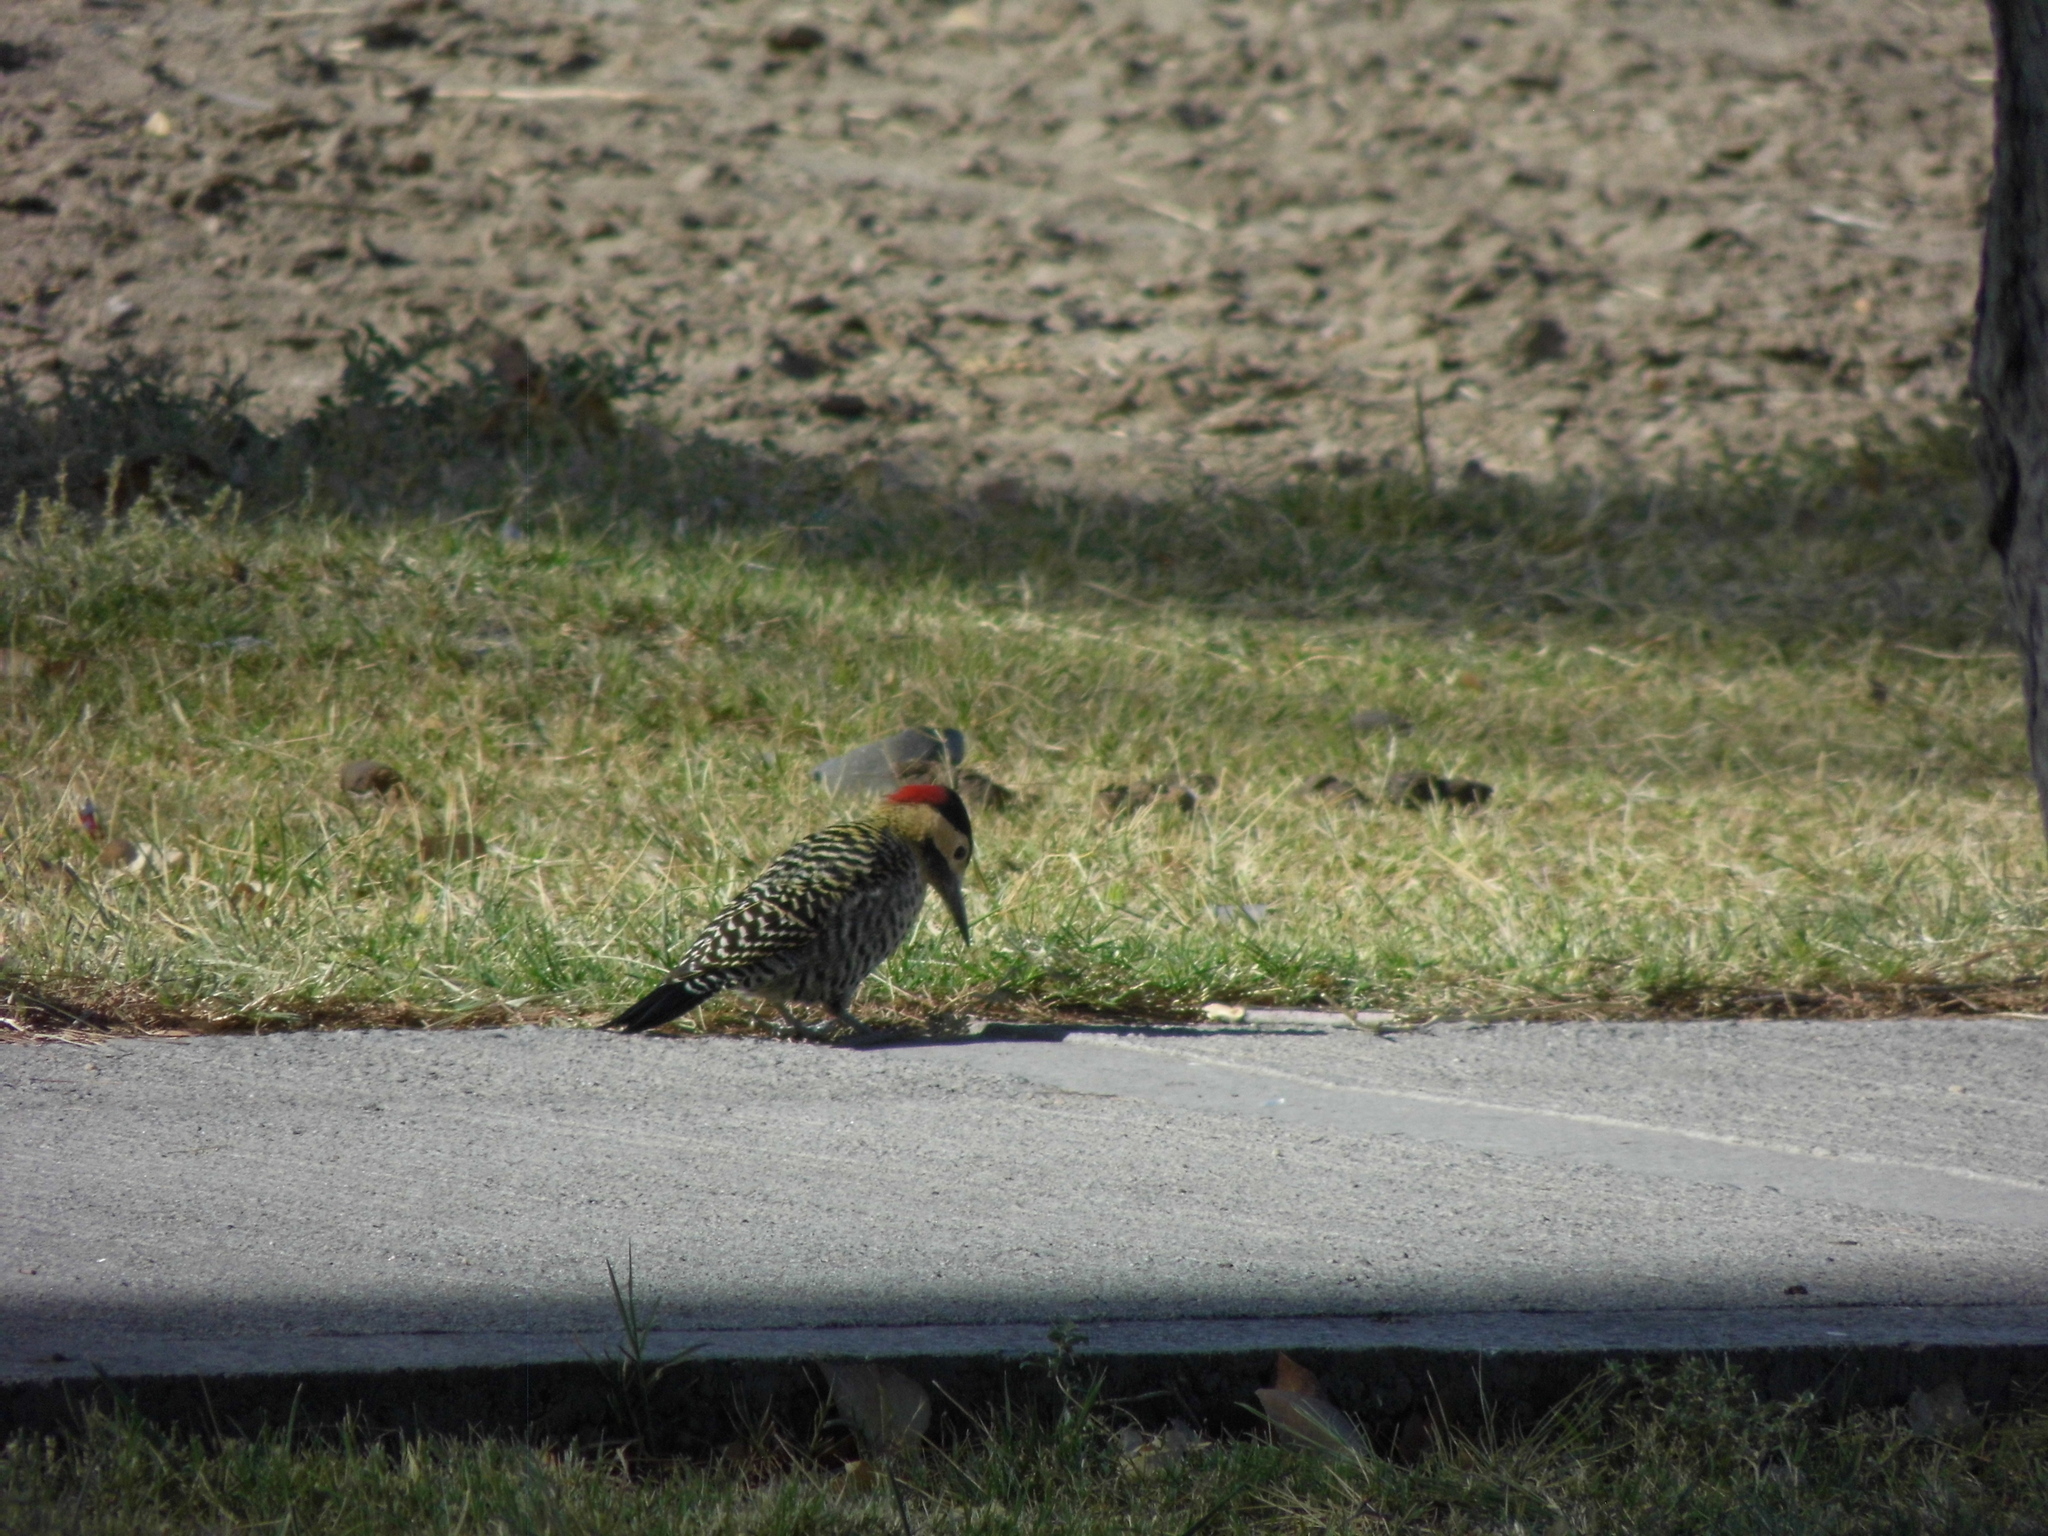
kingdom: Animalia
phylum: Chordata
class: Aves
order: Piciformes
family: Picidae
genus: Colaptes
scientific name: Colaptes melanochloros
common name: Green-barred woodpecker
